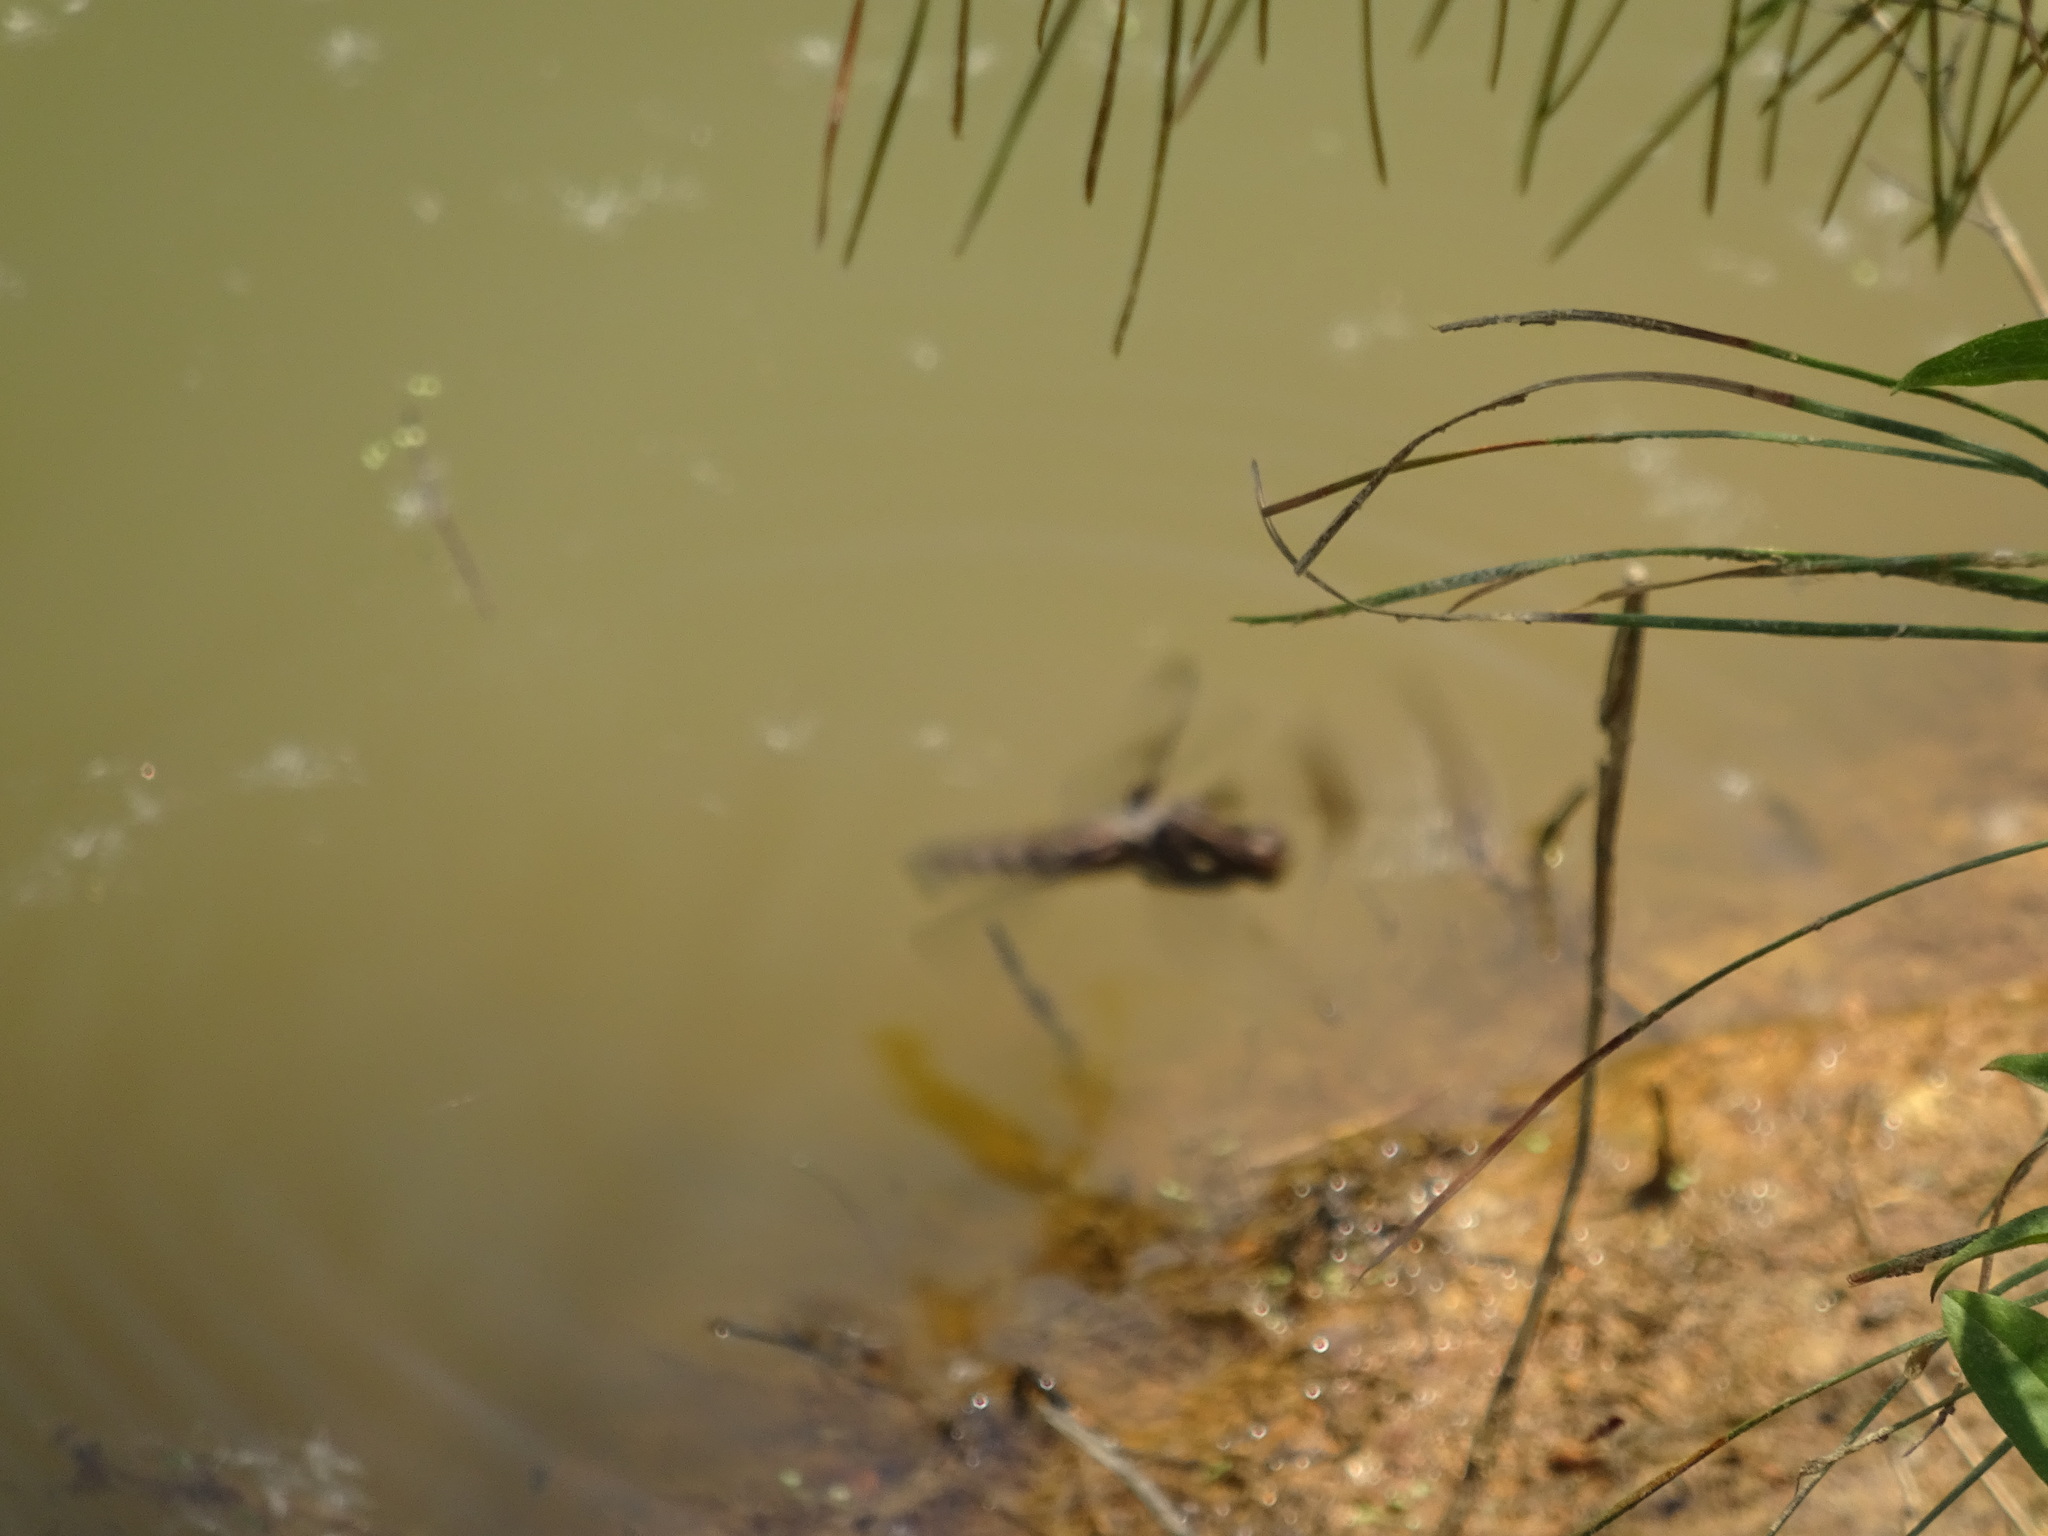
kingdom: Animalia
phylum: Arthropoda
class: Insecta
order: Odonata
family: Libellulidae
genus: Plathemis
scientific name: Plathemis lydia
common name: Common whitetail
